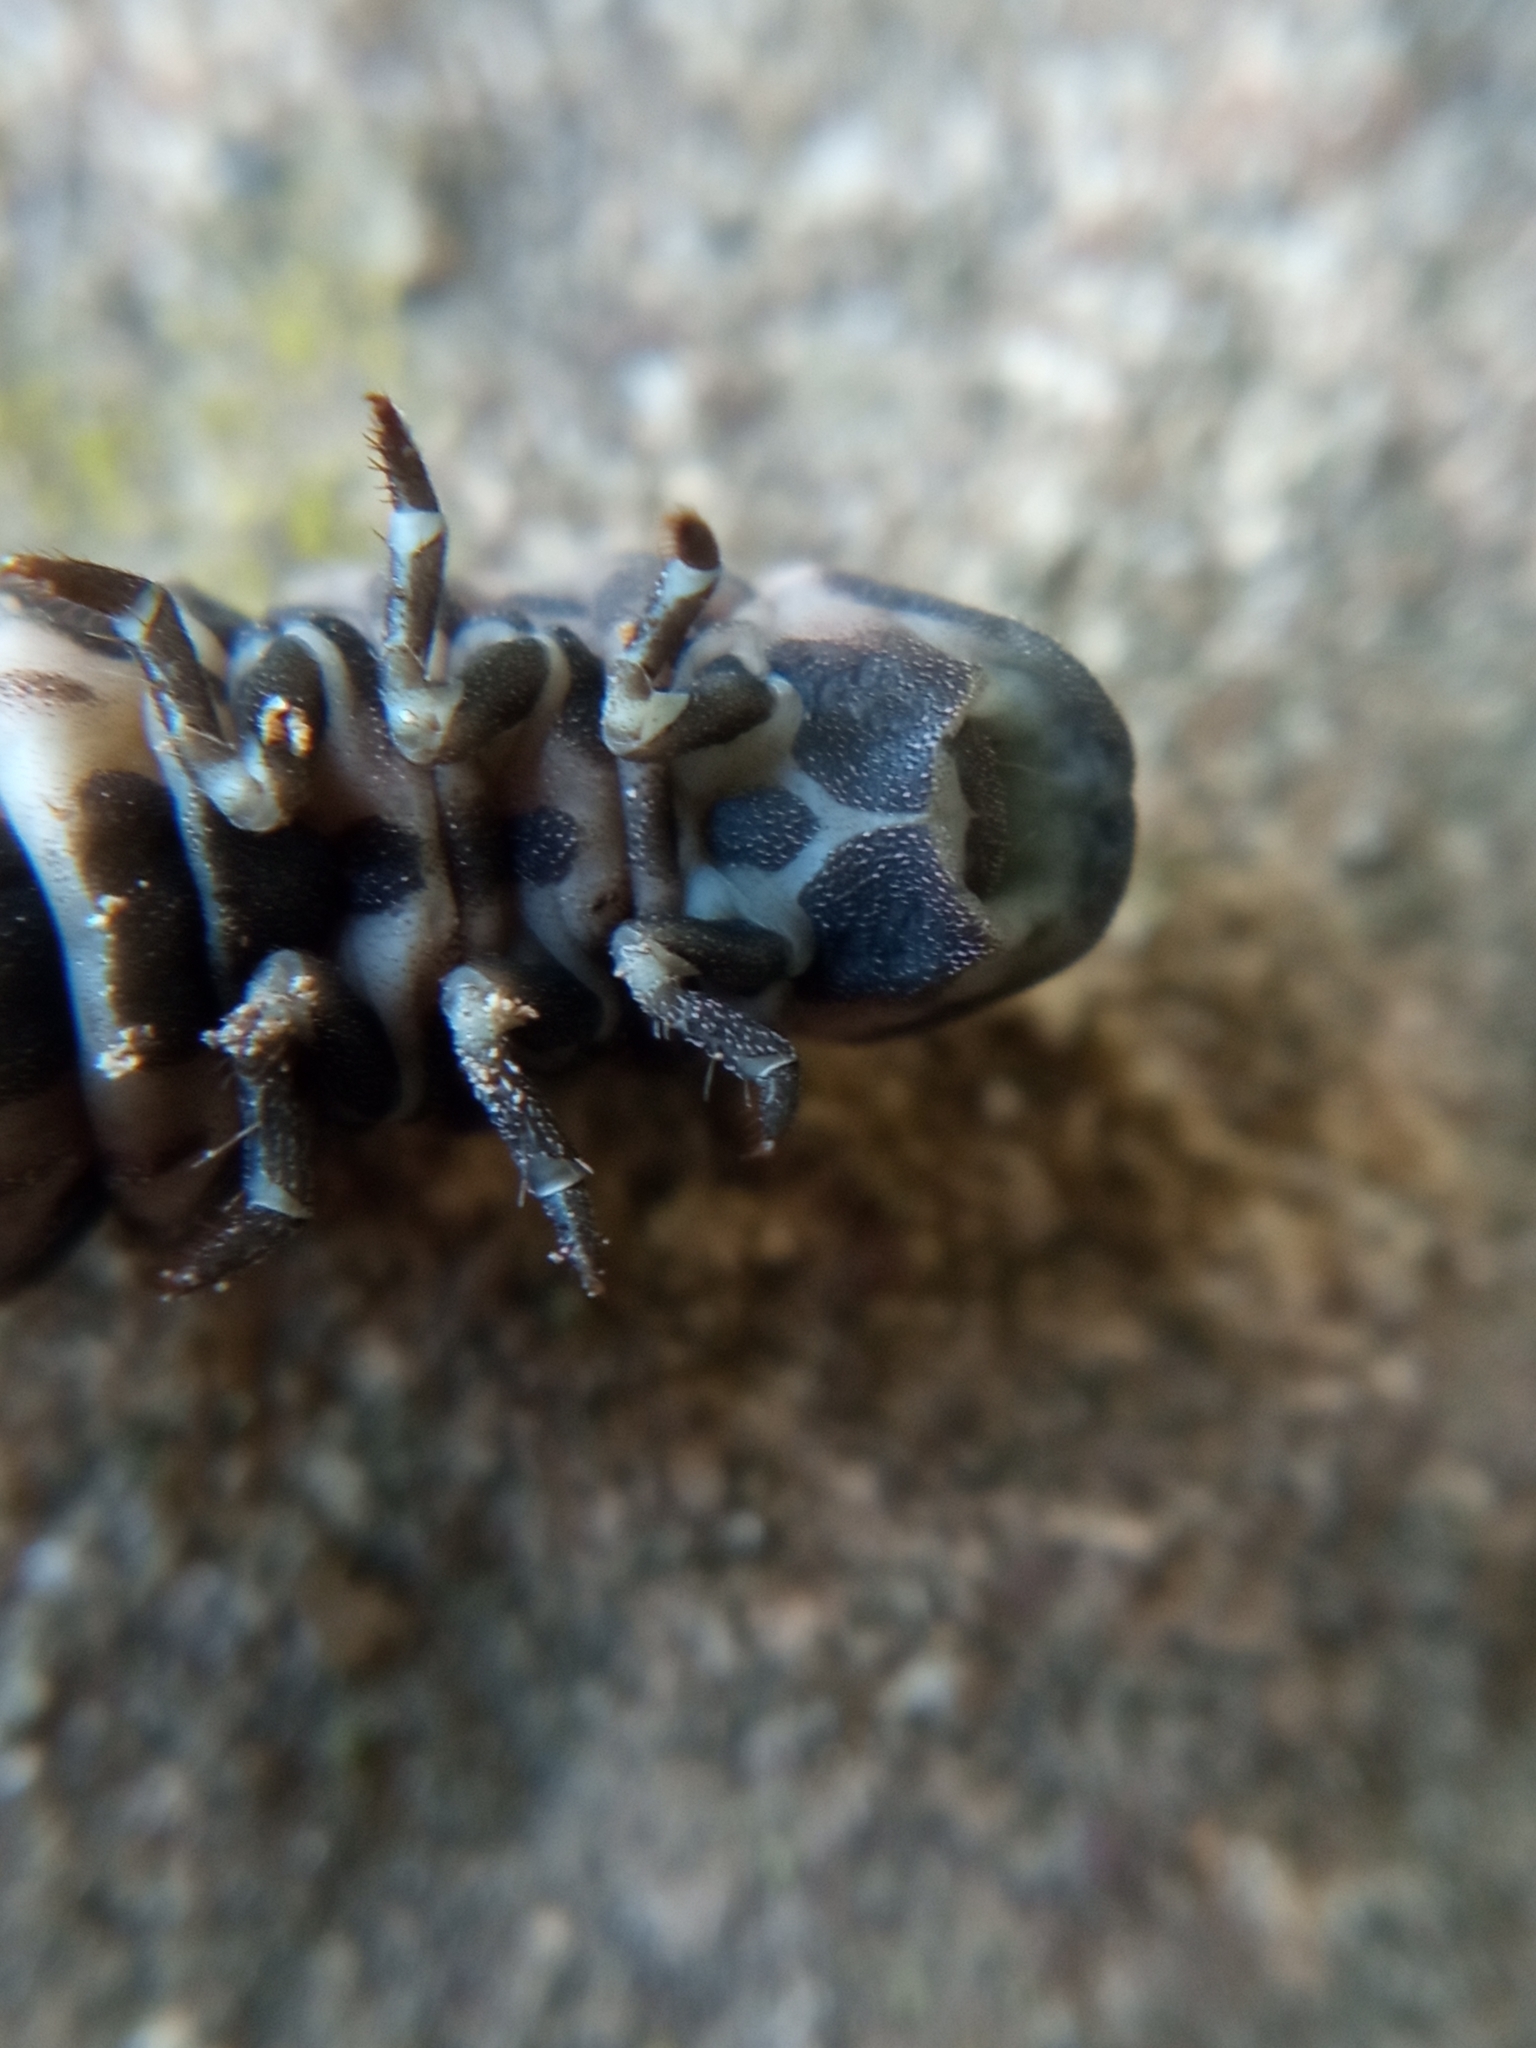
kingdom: Animalia
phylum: Arthropoda
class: Insecta
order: Coleoptera
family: Lampyridae
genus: Lampyris
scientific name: Lampyris noctiluca
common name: Glow-worm
